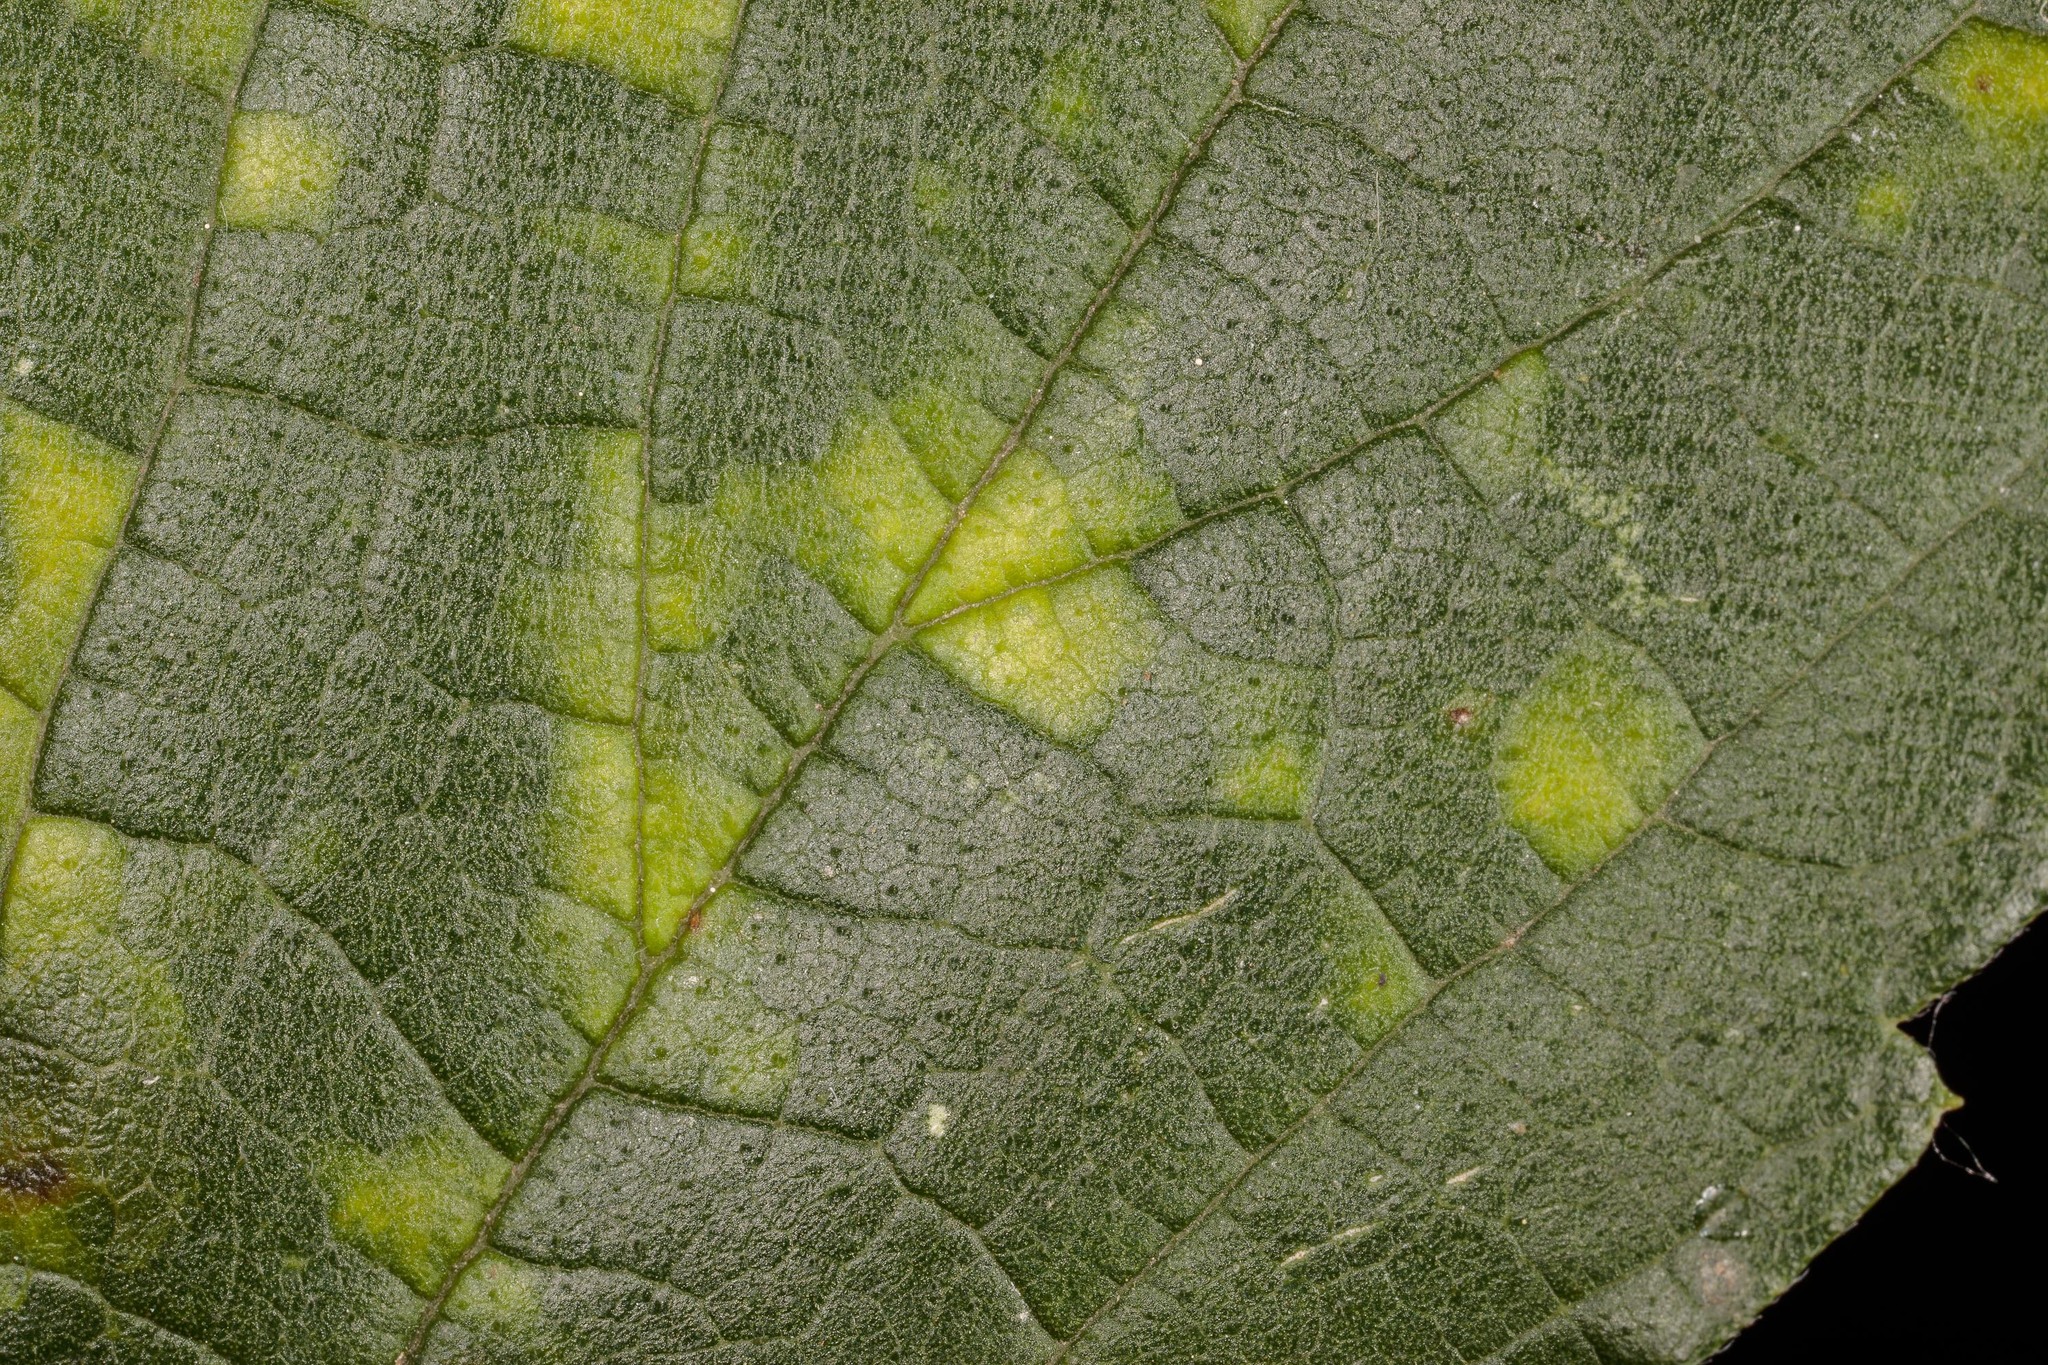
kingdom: Viruses
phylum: Kitrinoviricota
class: Alsuviricetes
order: Martellivirales
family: Closteroviridae
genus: Ampelovirus
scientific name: Ampelovirus
